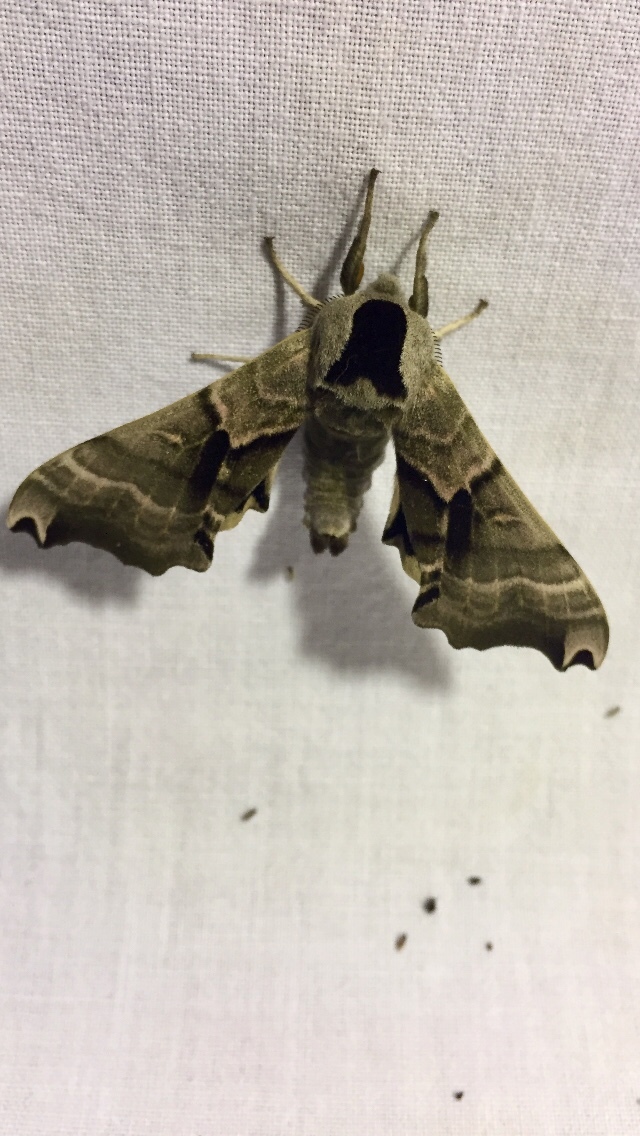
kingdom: Animalia
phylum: Arthropoda
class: Insecta
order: Lepidoptera
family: Sphingidae
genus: Smerinthus
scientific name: Smerinthus jamaicensis
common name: Twin spotted sphinx
